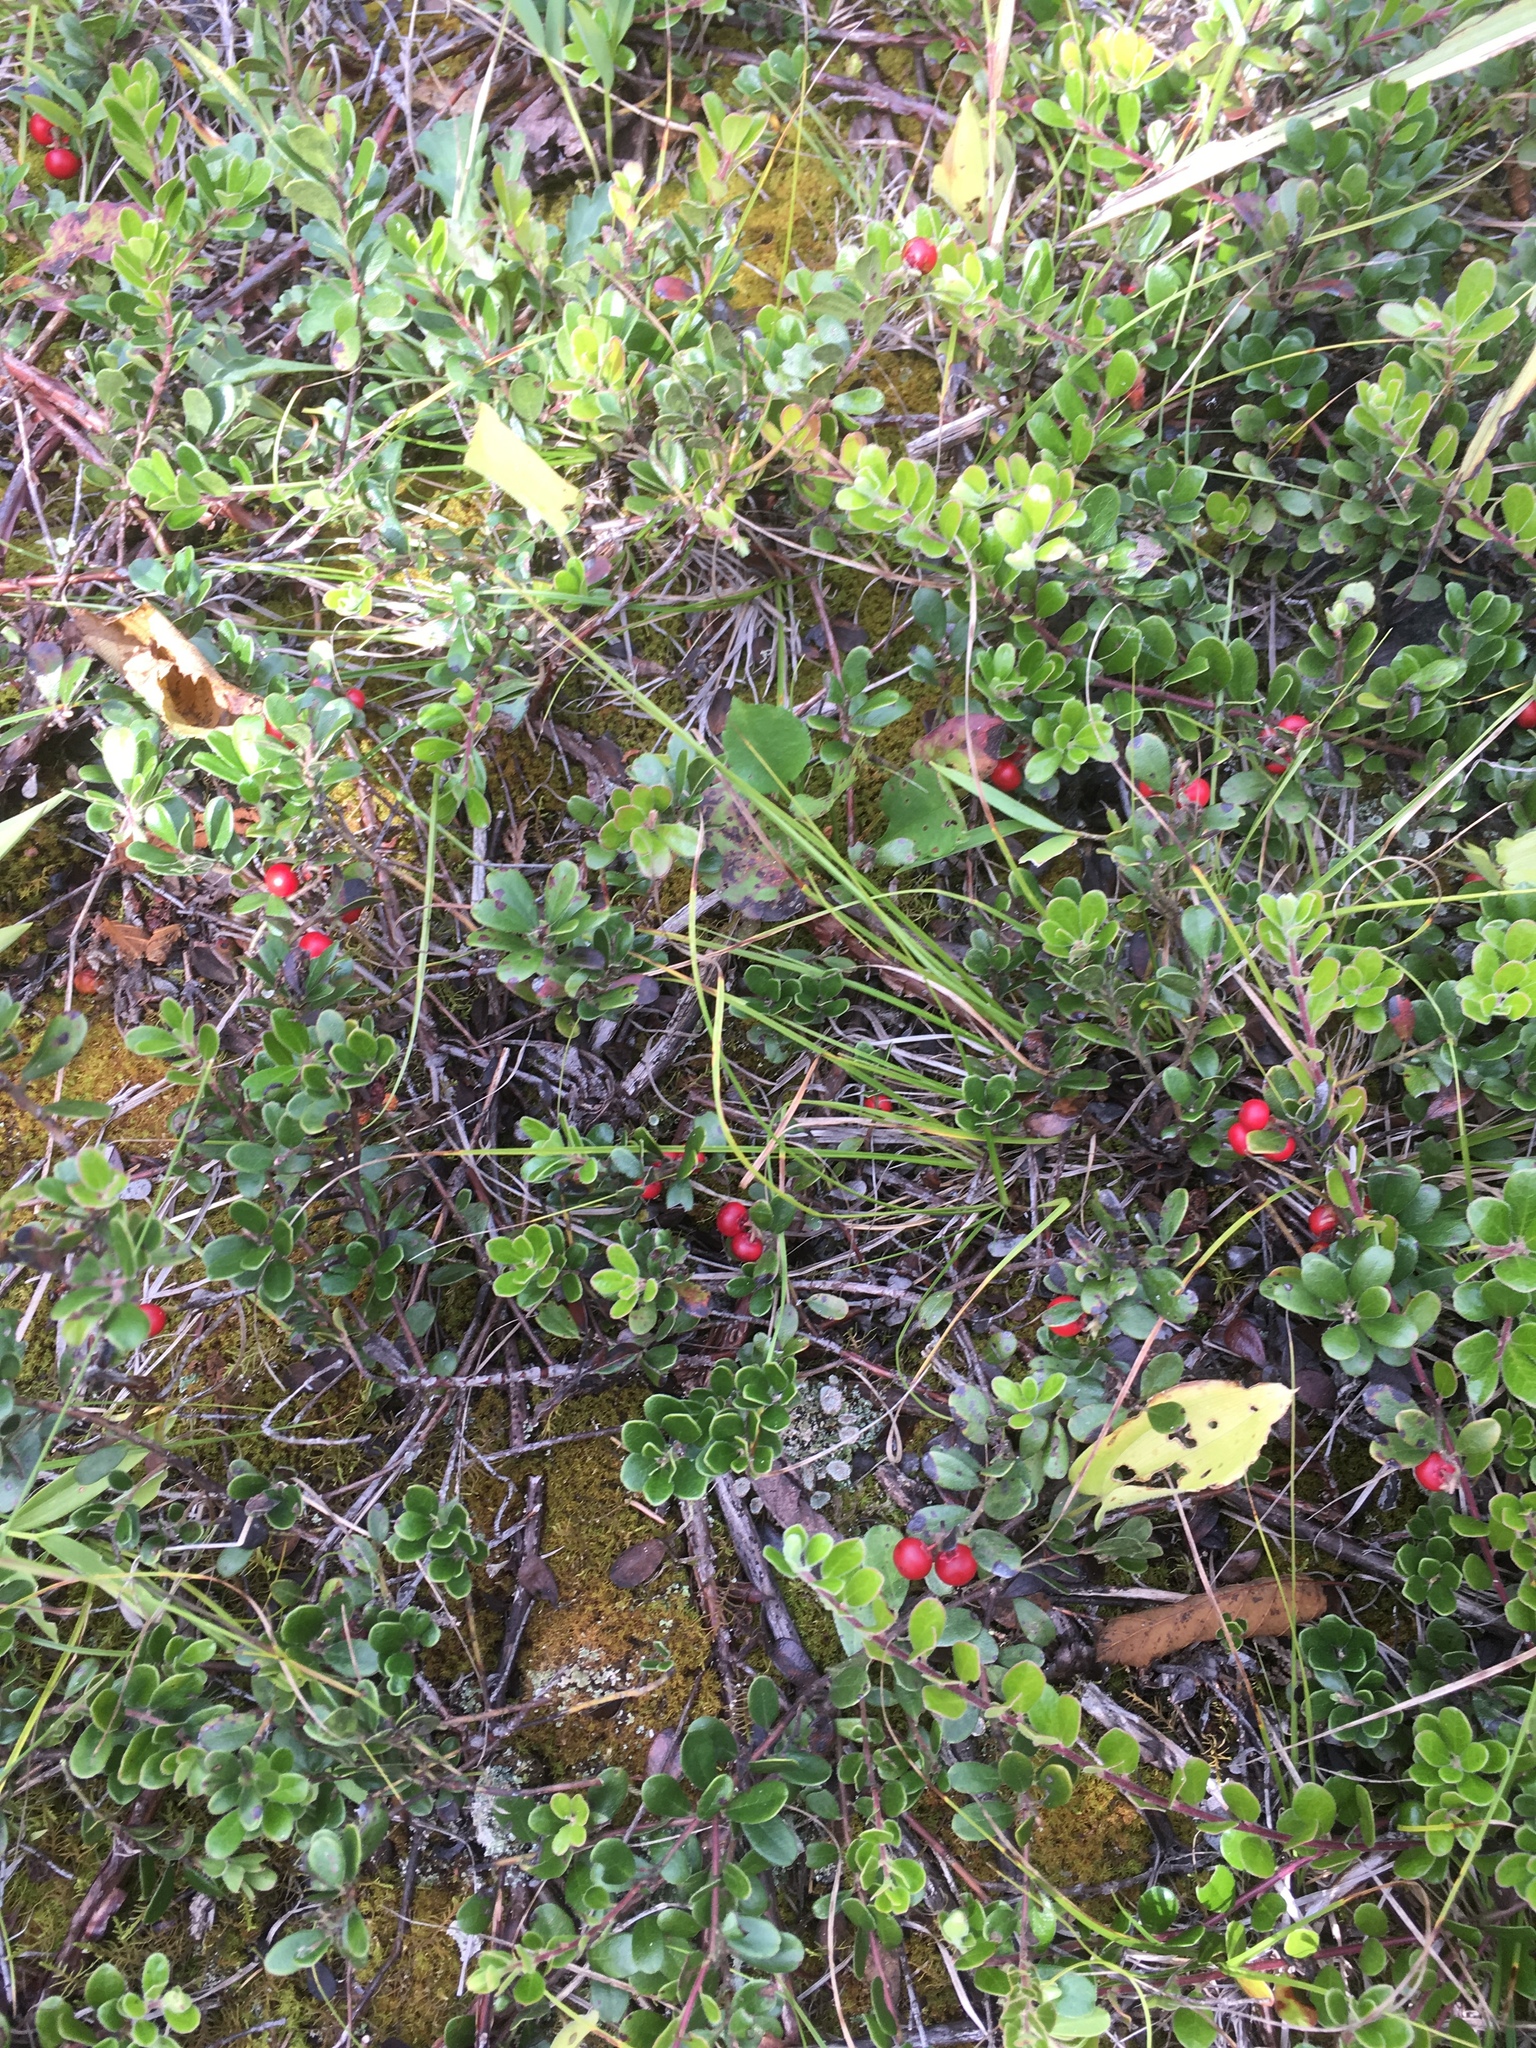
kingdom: Plantae
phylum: Tracheophyta
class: Magnoliopsida
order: Ericales
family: Ericaceae
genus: Arctostaphylos
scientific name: Arctostaphylos uva-ursi
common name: Bearberry
